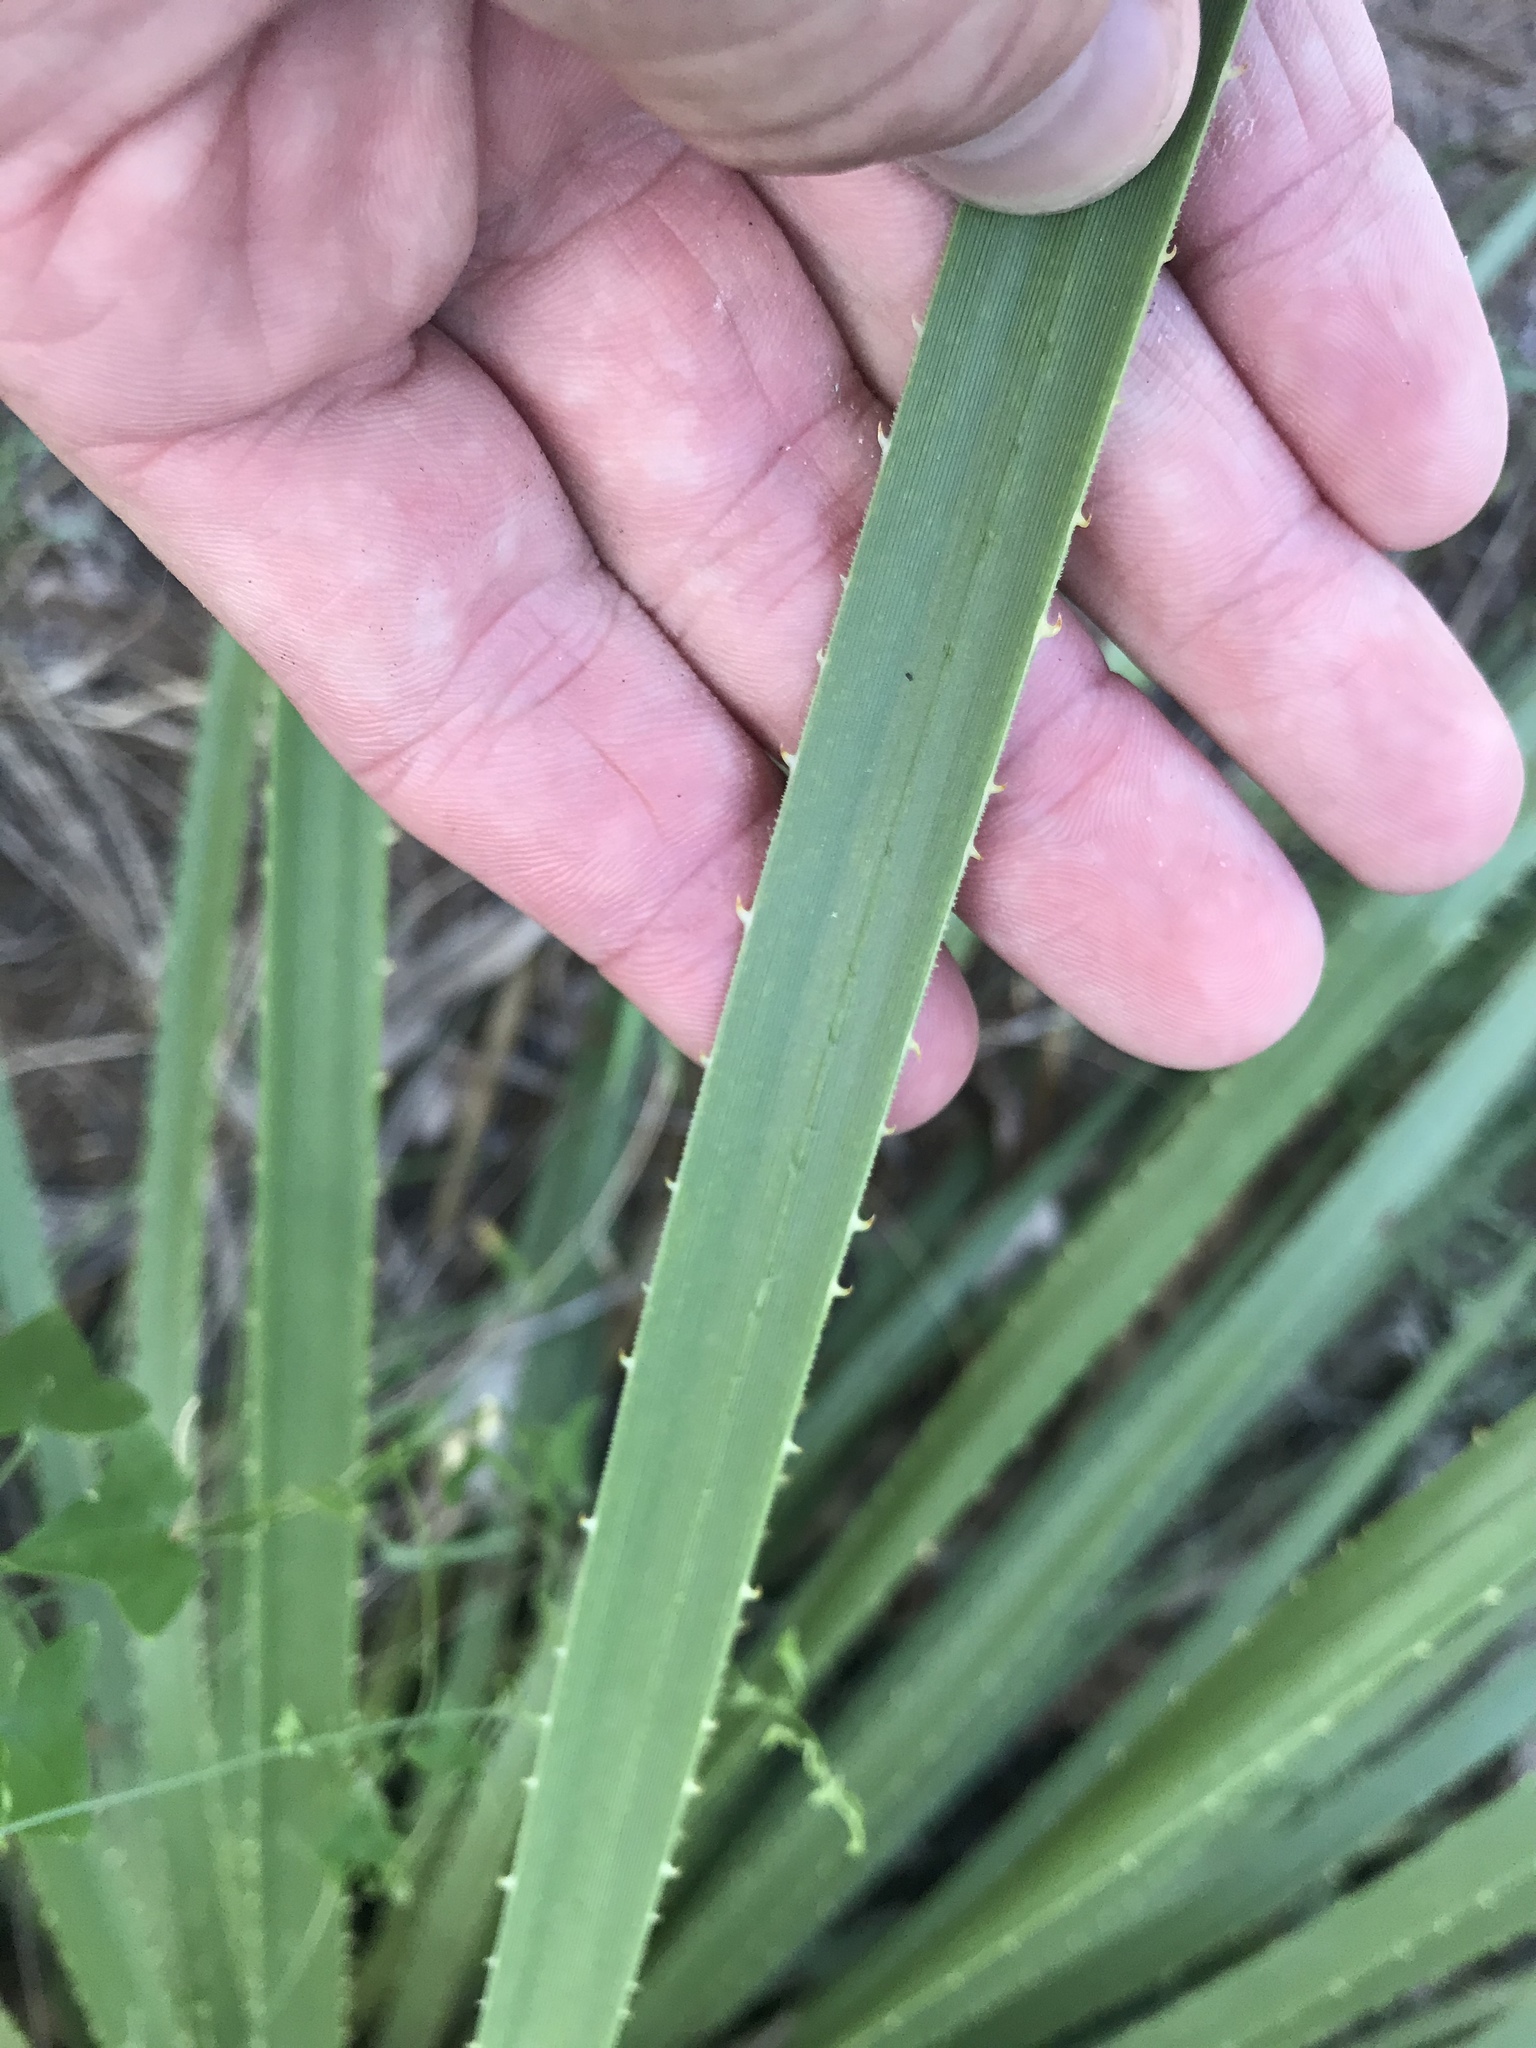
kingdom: Plantae
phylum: Tracheophyta
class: Liliopsida
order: Asparagales
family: Asparagaceae
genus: Dasylirion
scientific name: Dasylirion texanum
